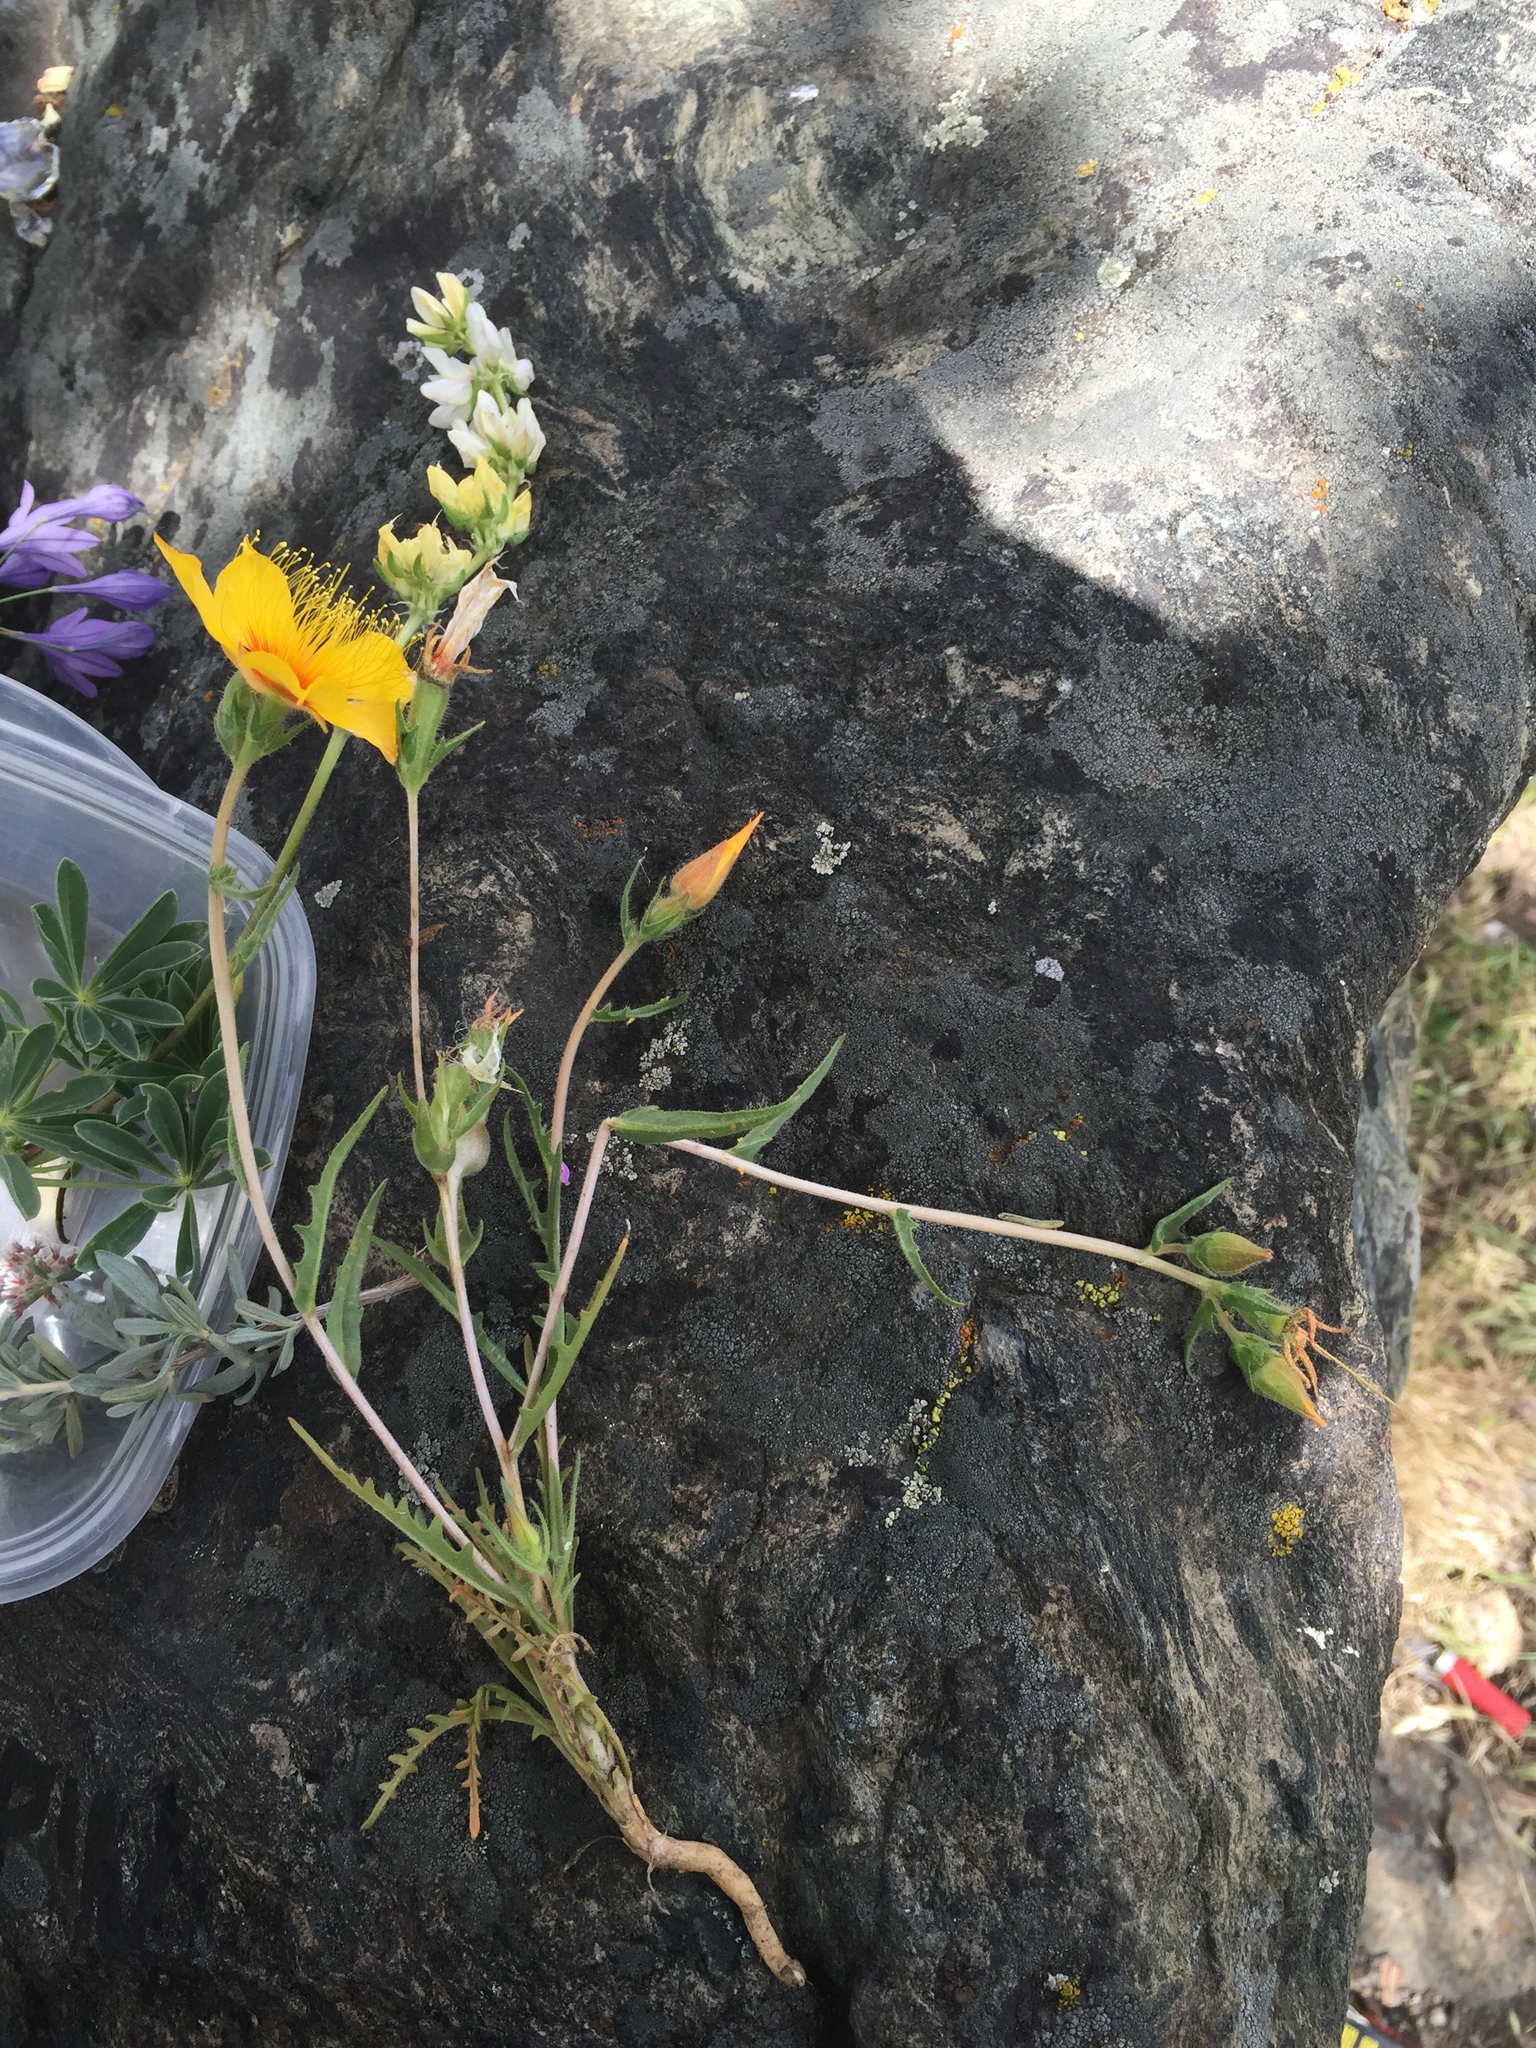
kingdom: Plantae
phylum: Tracheophyta
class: Magnoliopsida
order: Cornales
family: Loasaceae
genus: Mentzelia
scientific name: Mentzelia lindleyi
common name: Golden bartonia
